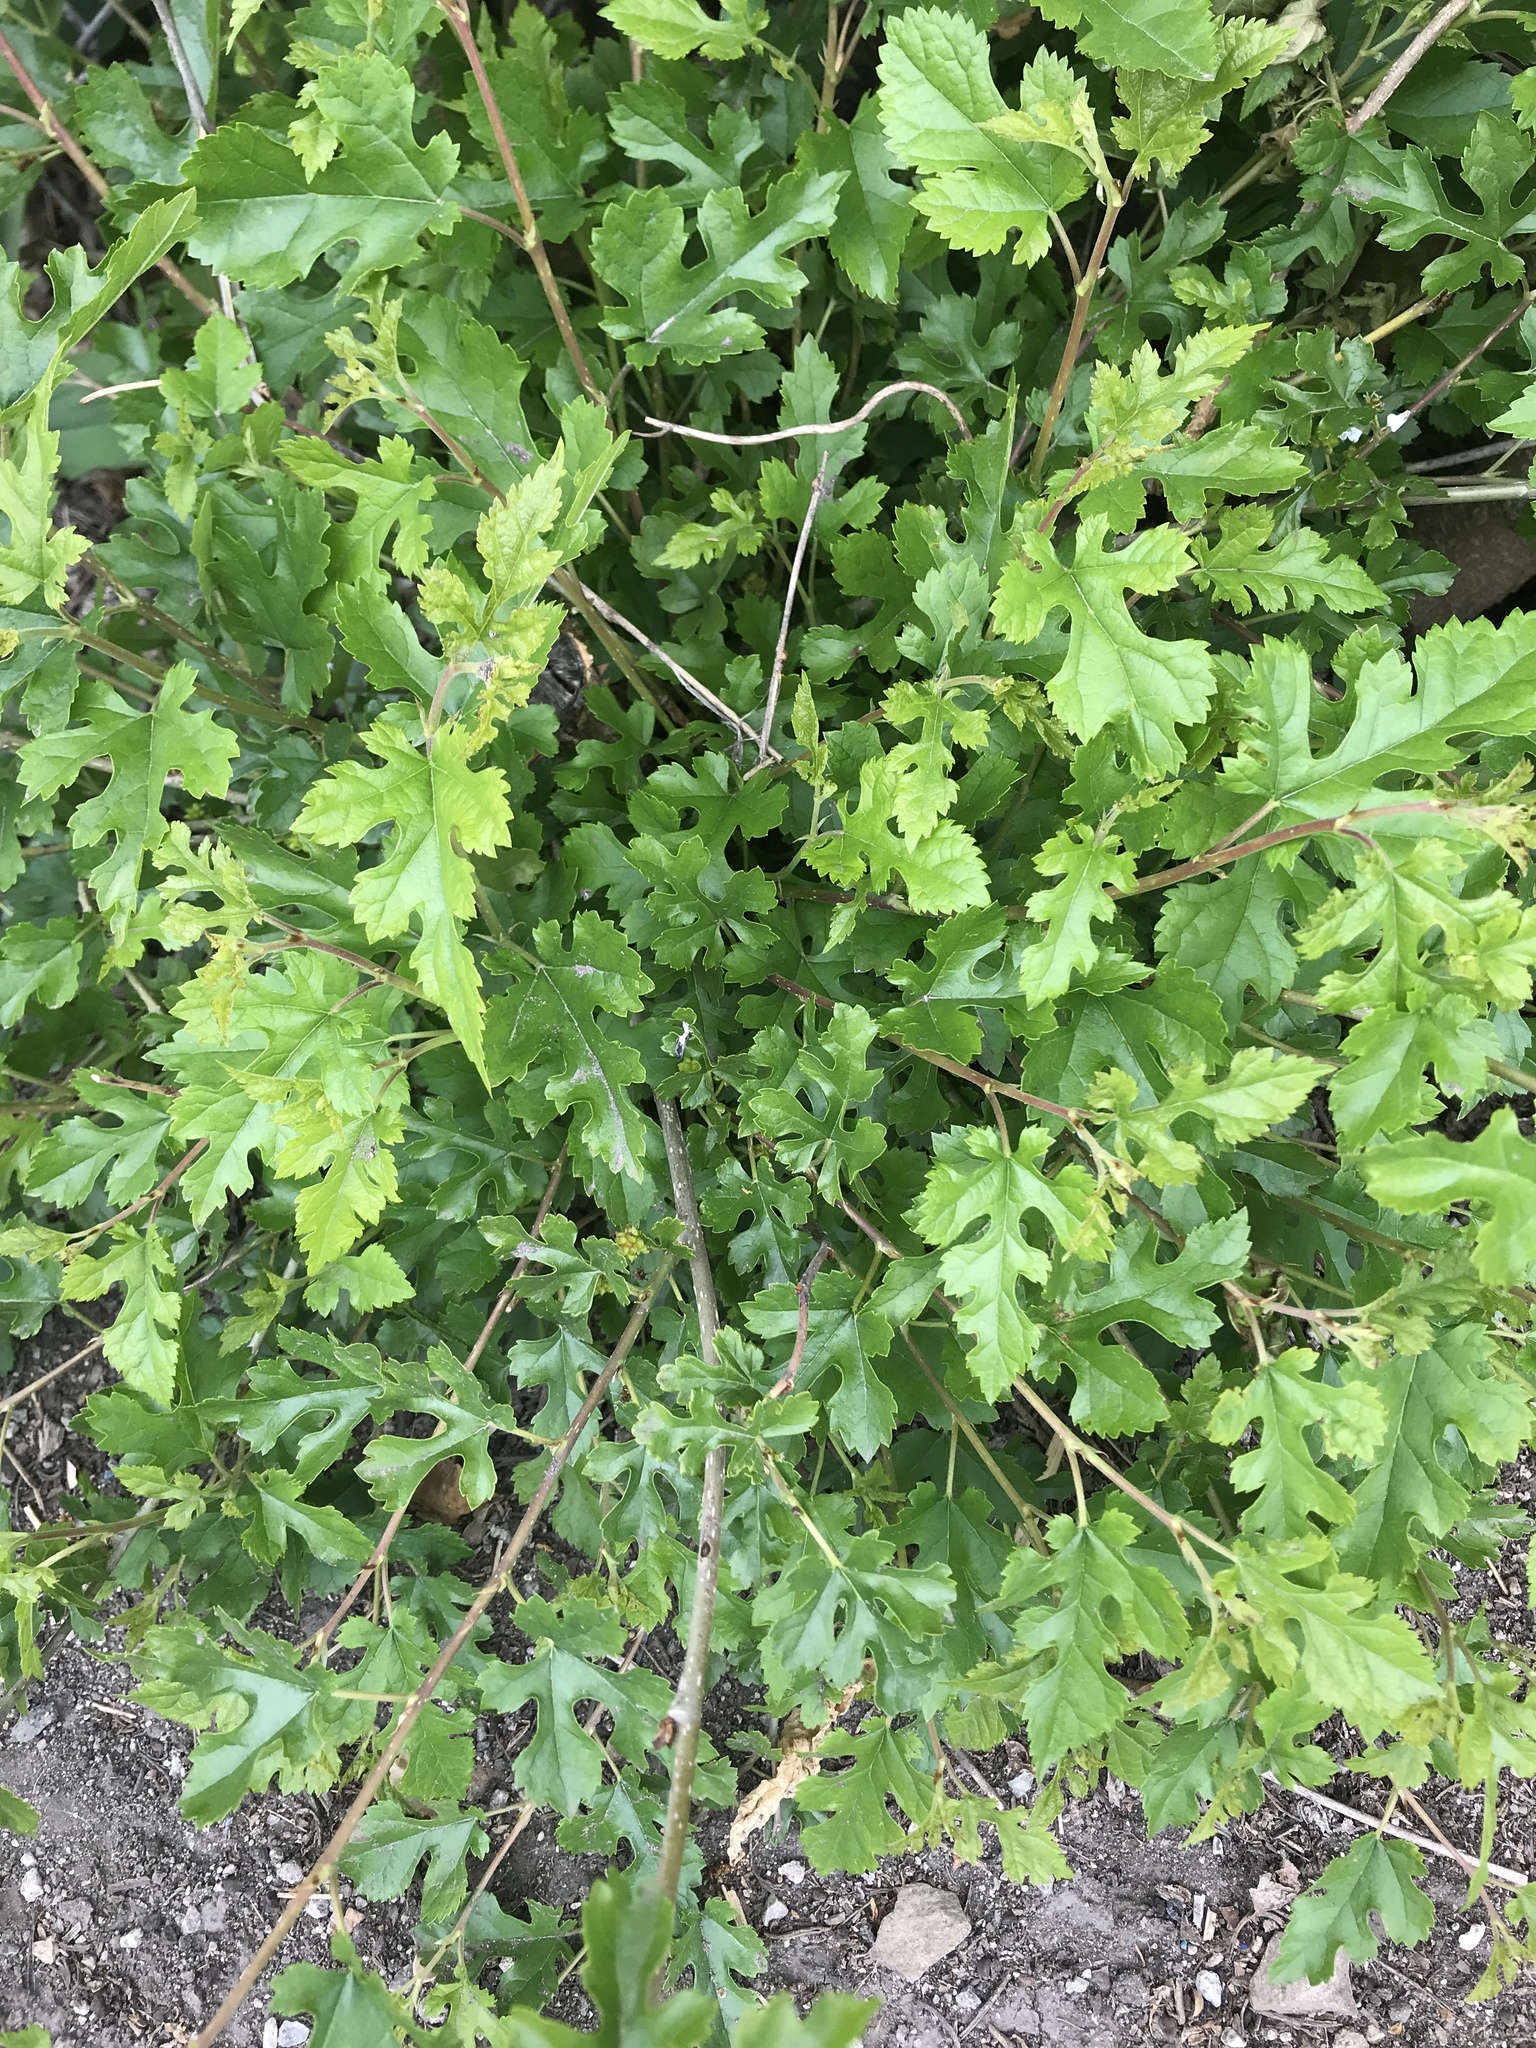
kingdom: Plantae
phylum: Tracheophyta
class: Magnoliopsida
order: Rosales
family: Moraceae
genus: Morus
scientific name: Morus alba
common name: White mulberry
